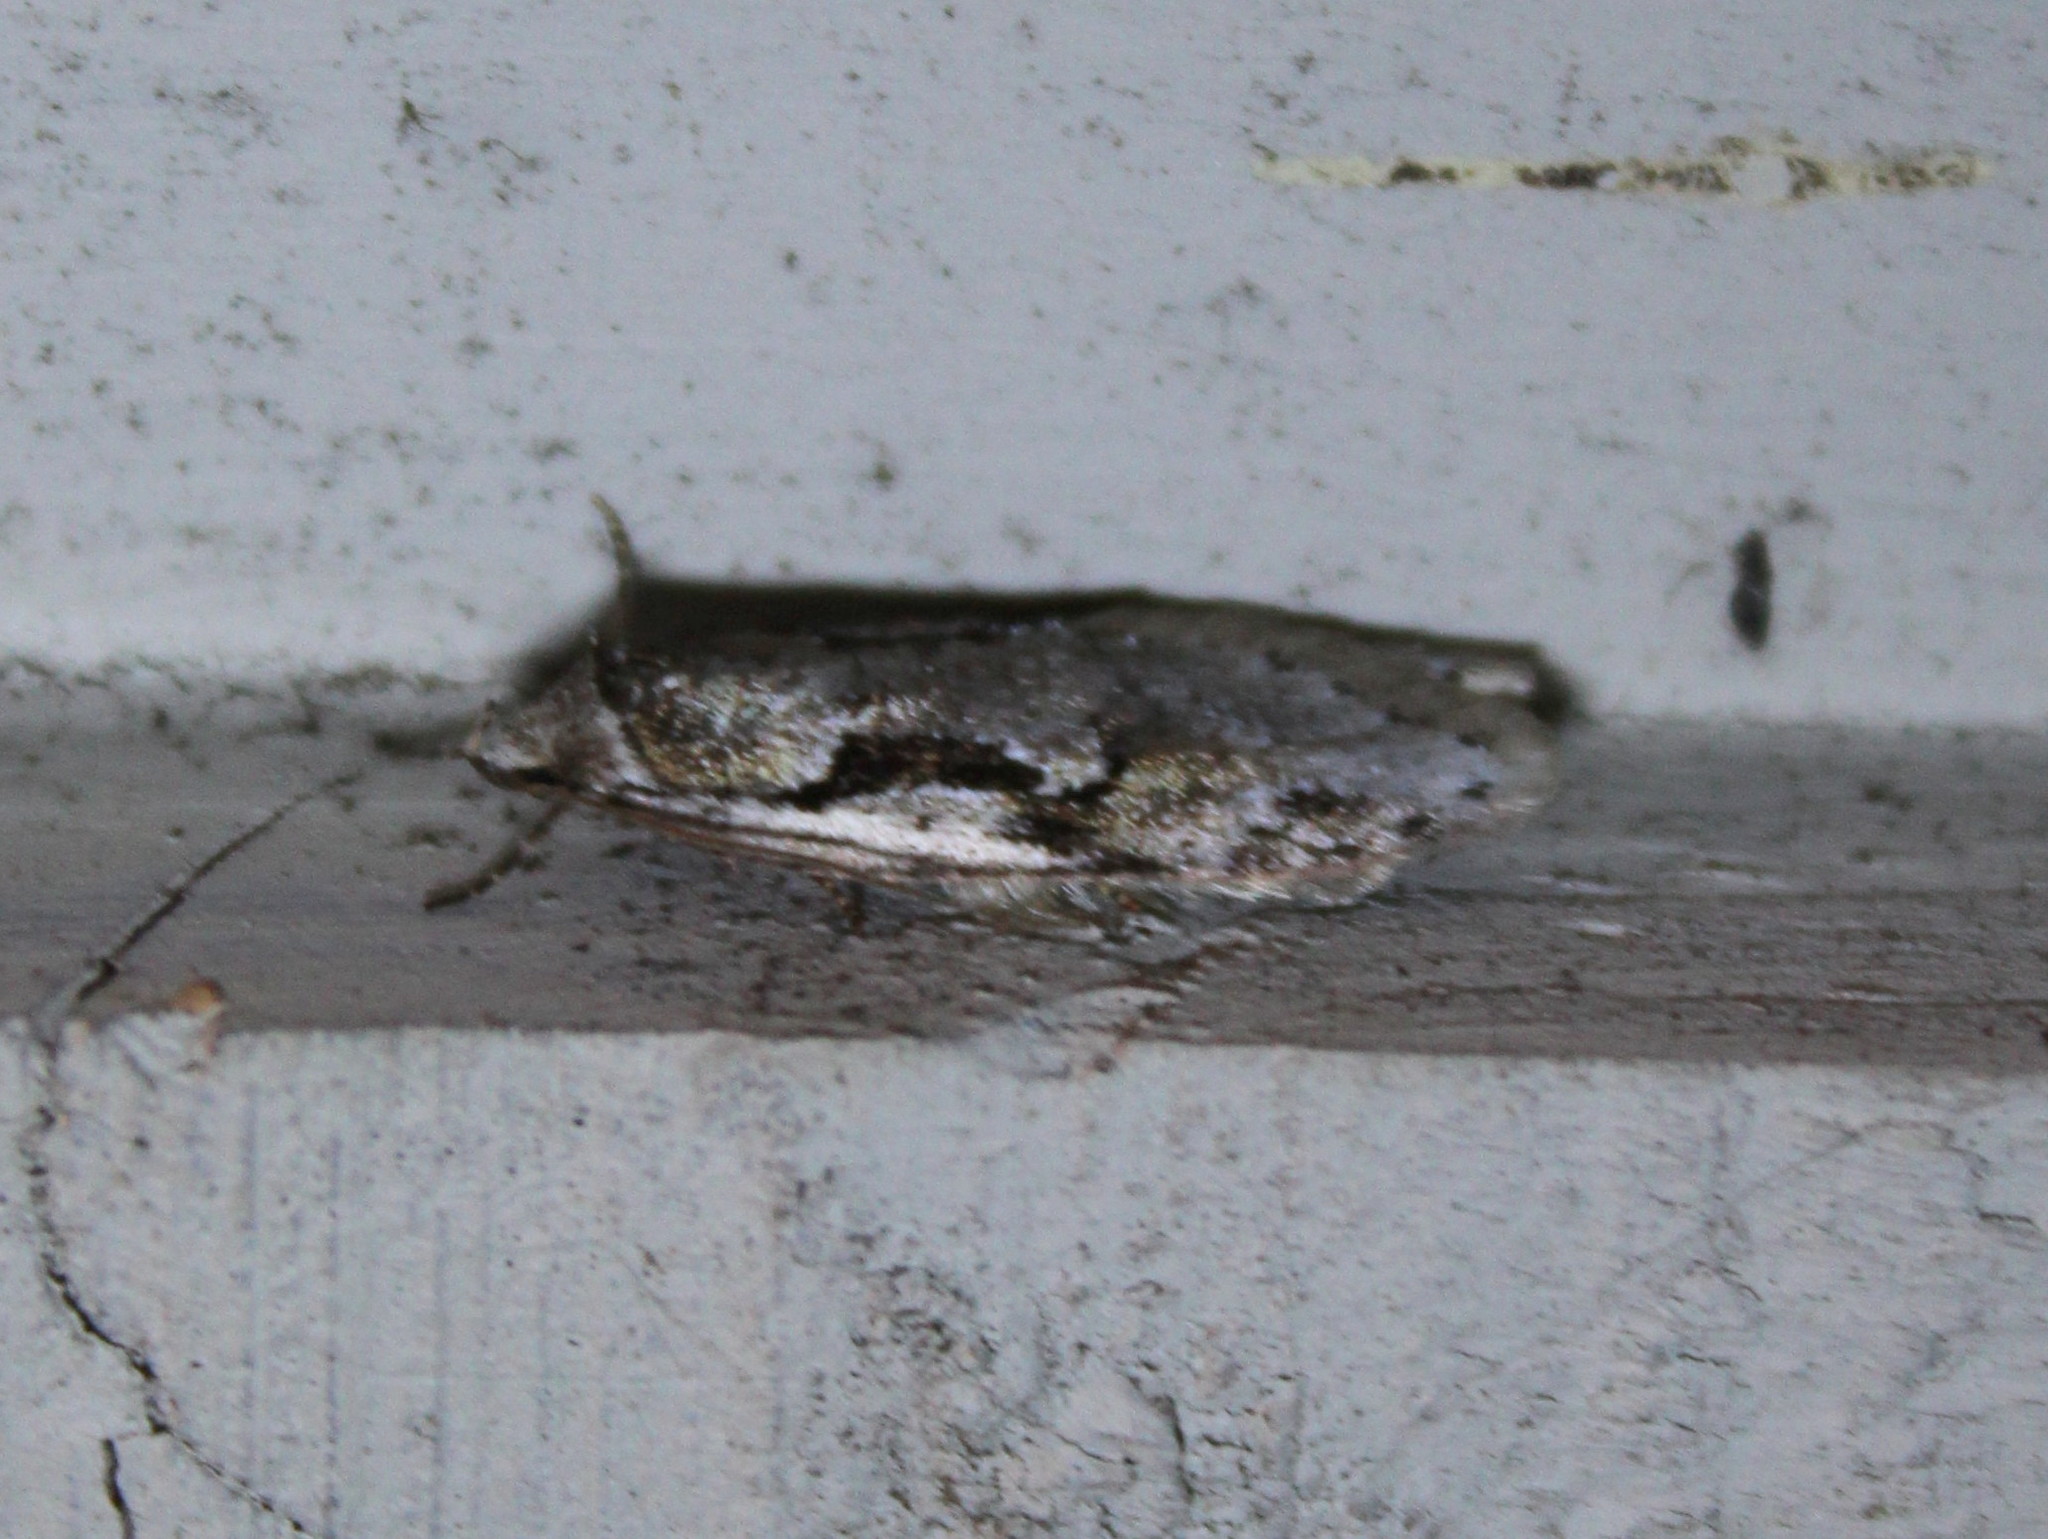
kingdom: Animalia
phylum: Arthropoda
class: Insecta
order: Lepidoptera
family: Depressariidae
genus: Semioscopis
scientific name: Semioscopis merriccella
